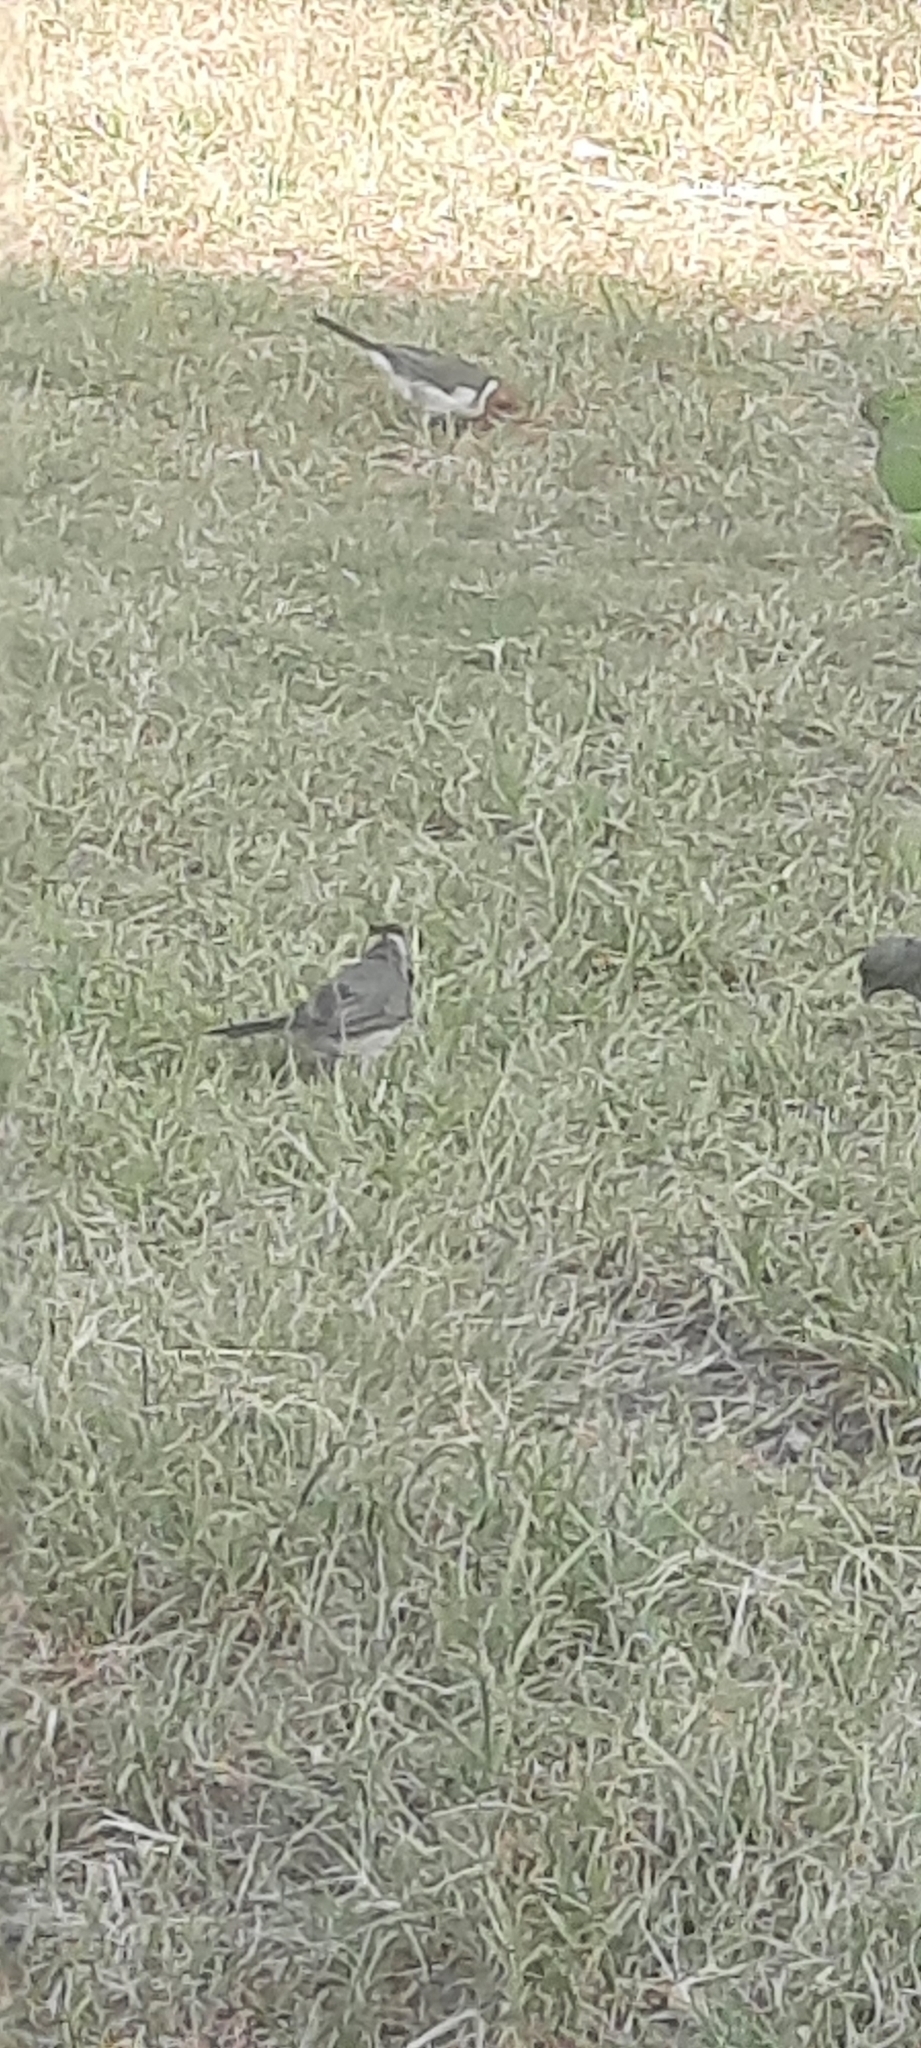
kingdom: Animalia
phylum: Chordata
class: Aves
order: Passeriformes
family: Thraupidae
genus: Paroaria
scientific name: Paroaria coronata
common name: Red-crested cardinal
